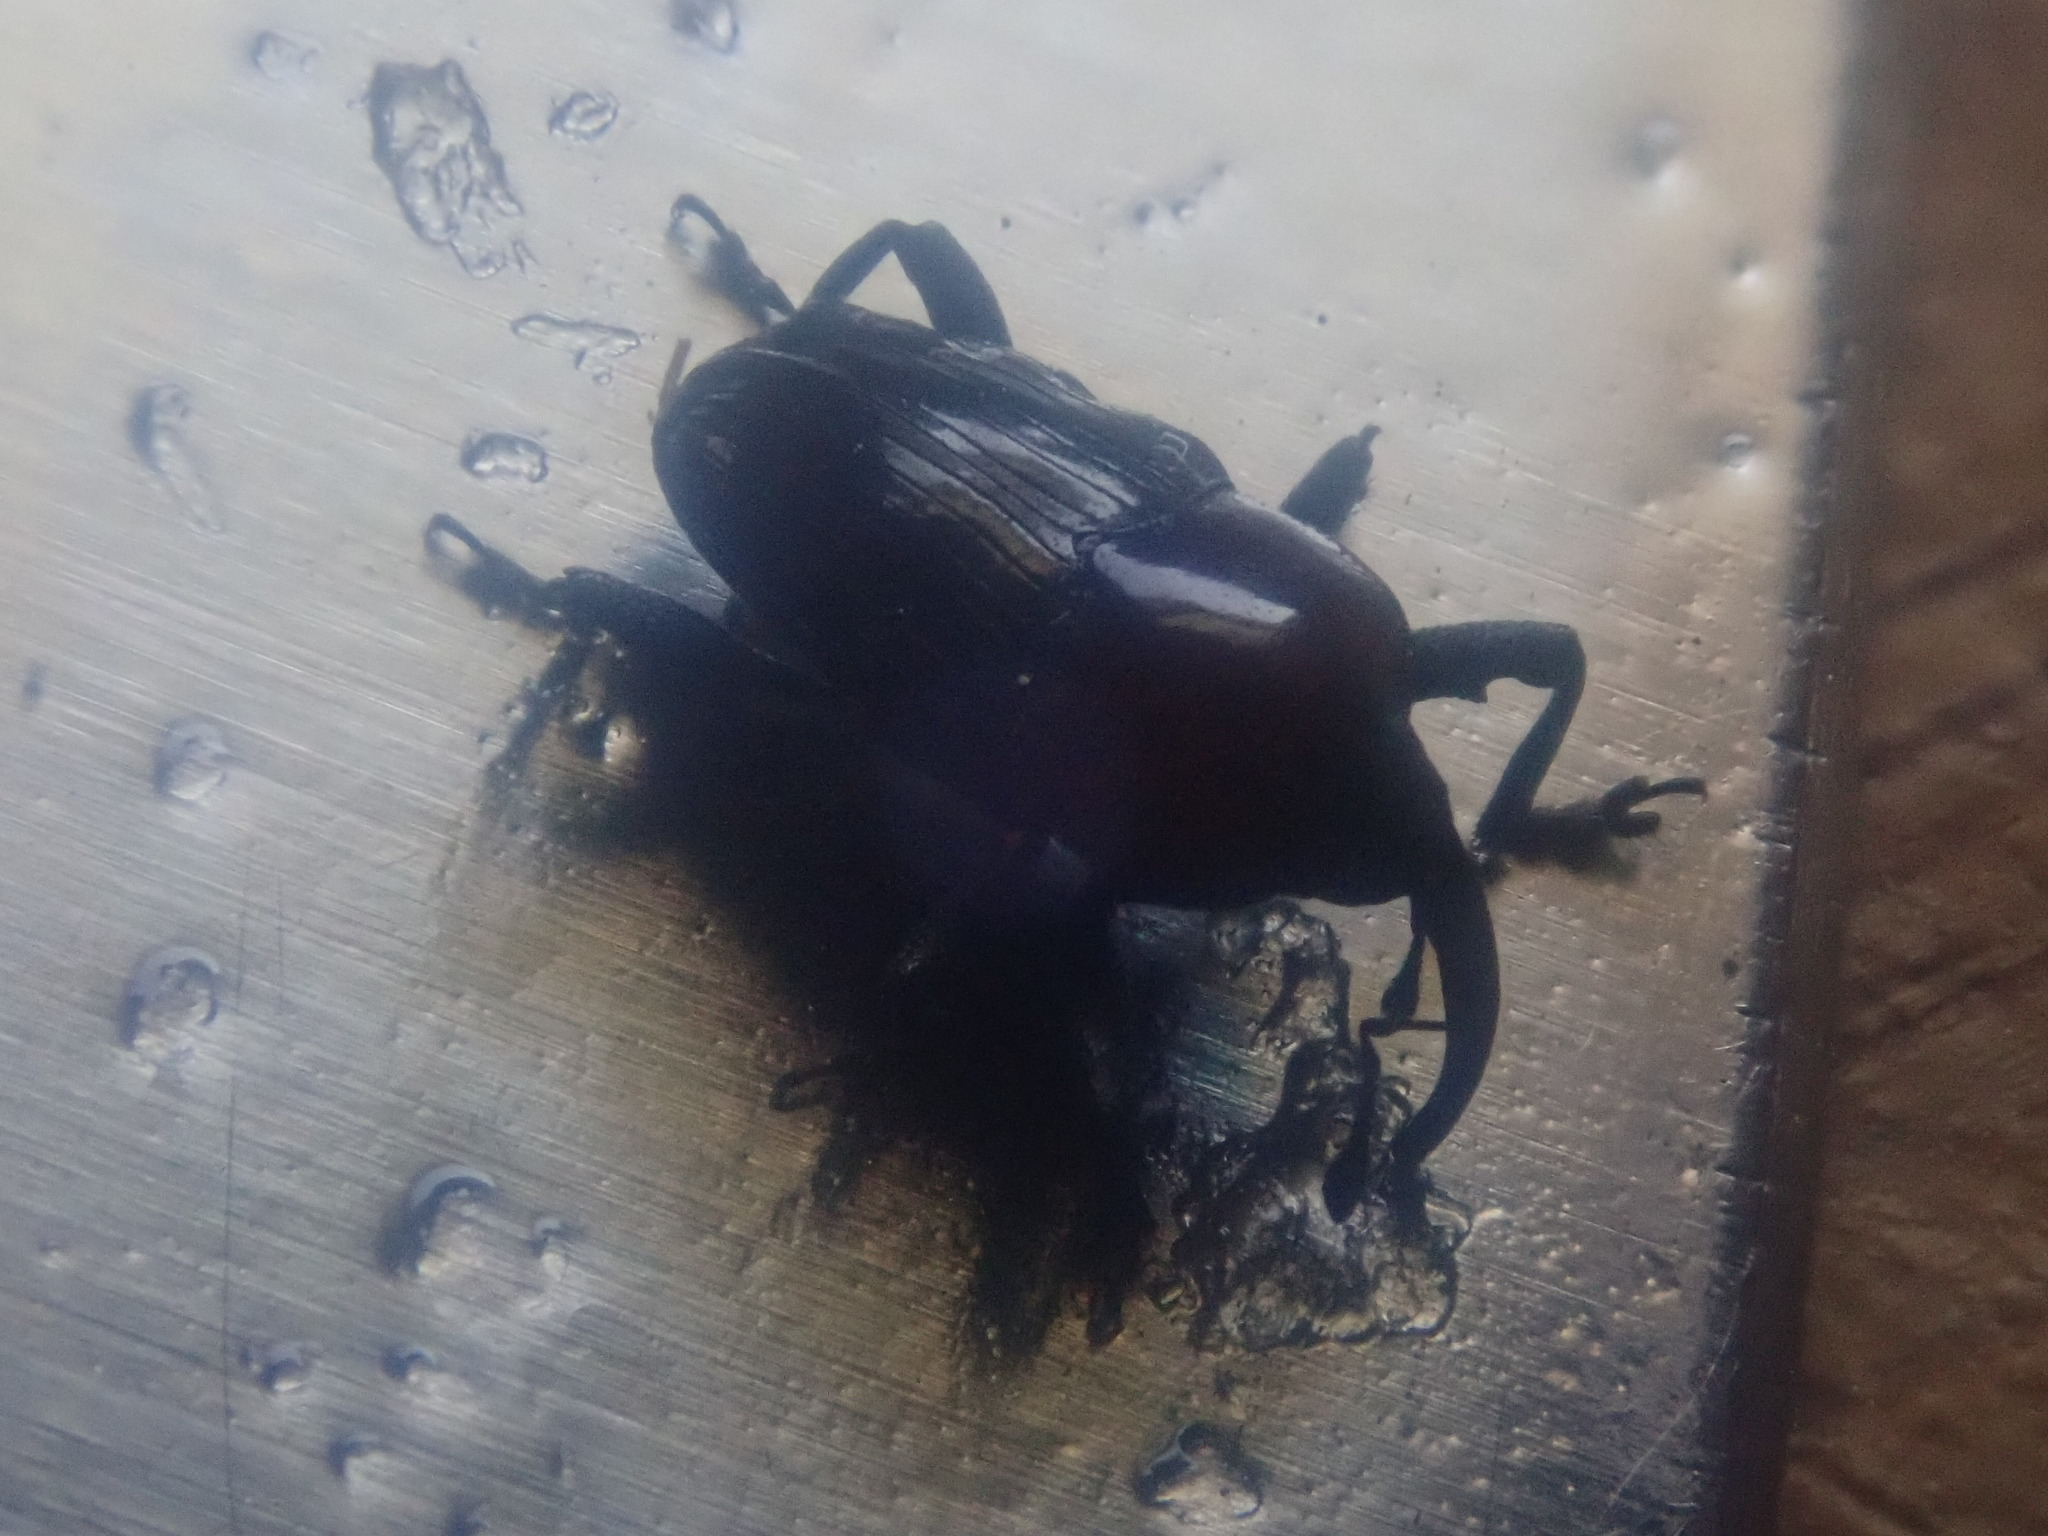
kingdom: Animalia
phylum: Arthropoda
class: Insecta
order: Coleoptera
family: Curculionidae
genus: Madarellus
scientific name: Madarellus undulatus
